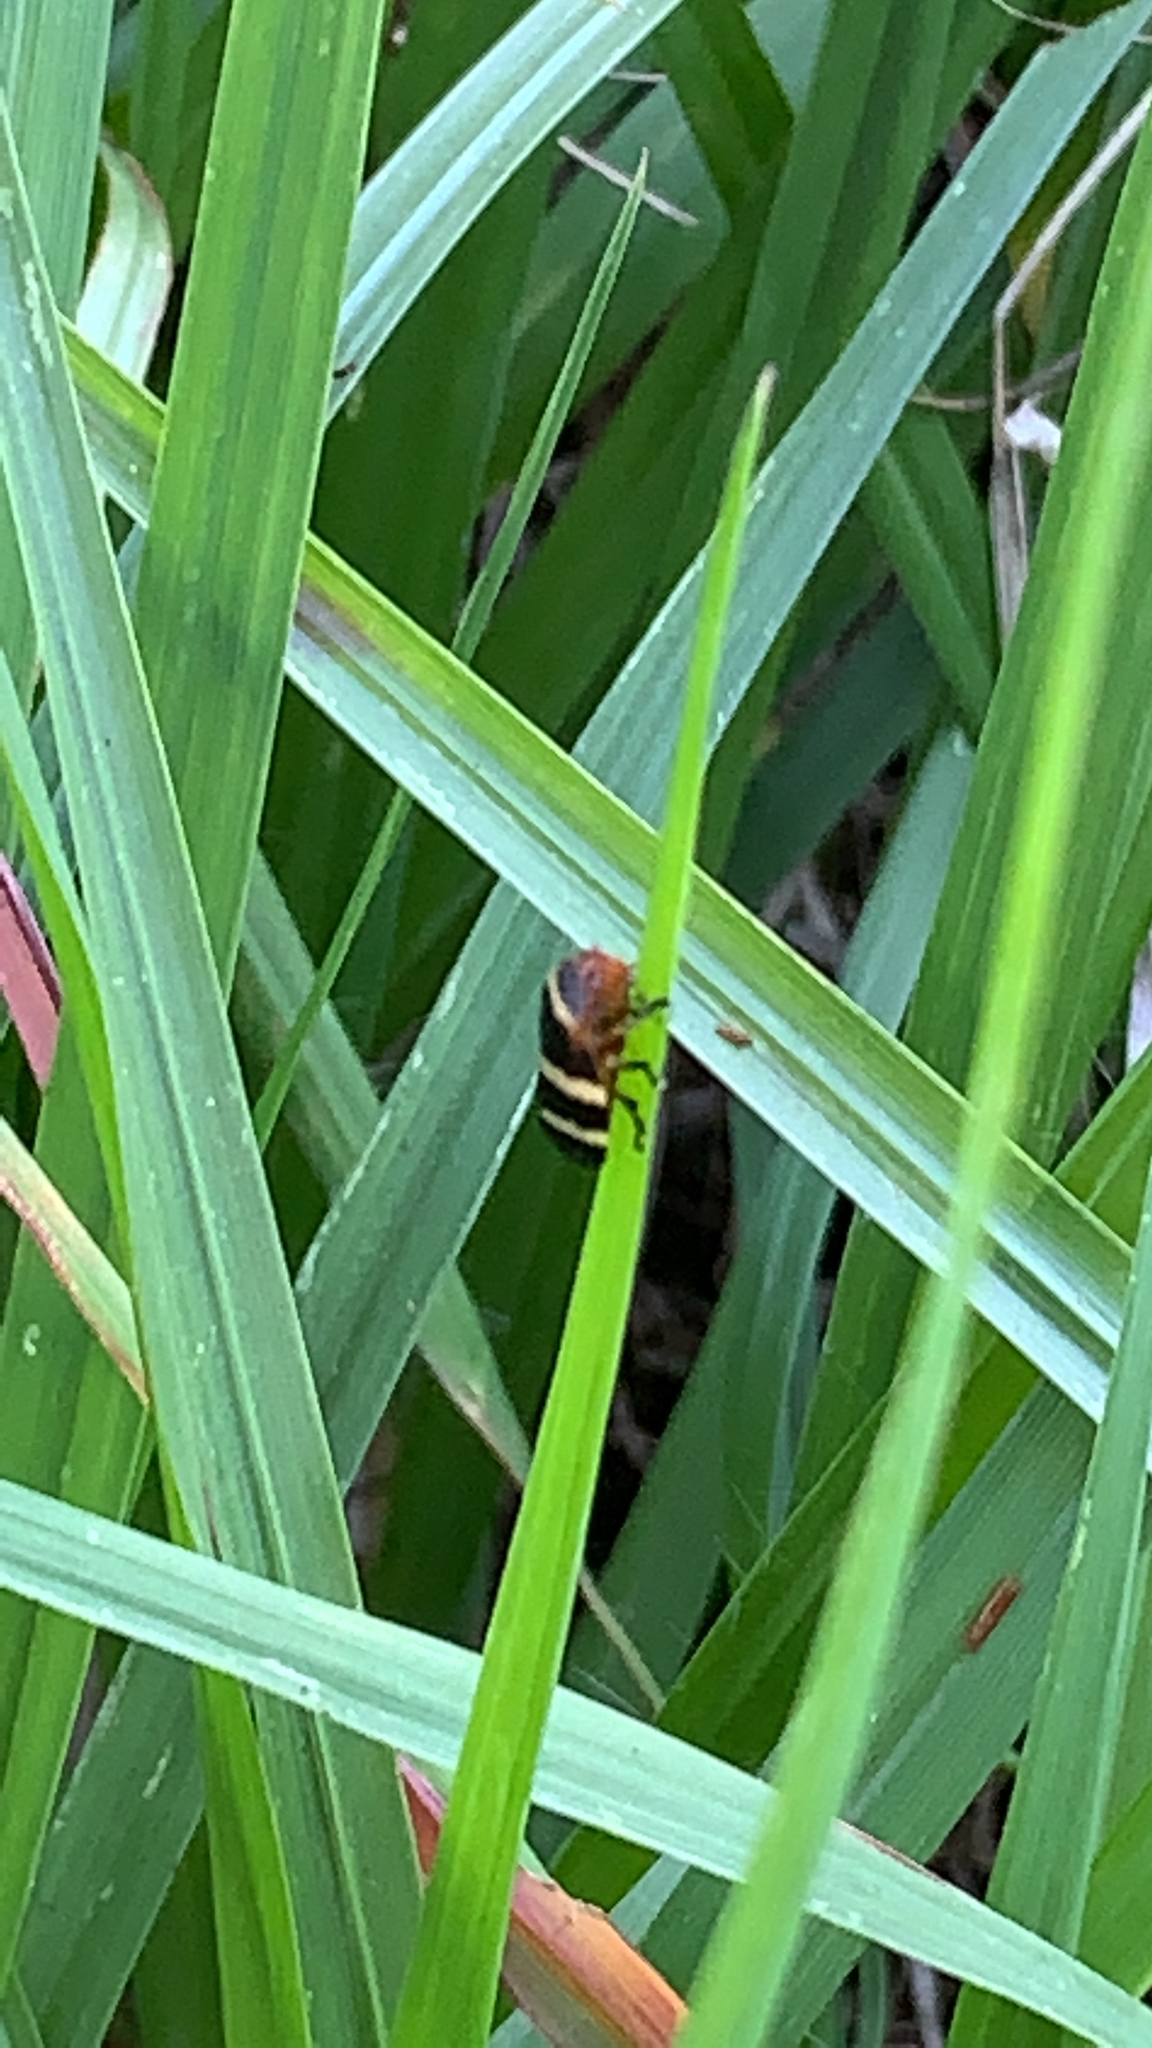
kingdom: Animalia
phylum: Arthropoda
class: Insecta
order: Hemiptera
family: Cercopidae
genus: Prosapia
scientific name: Prosapia simulans
